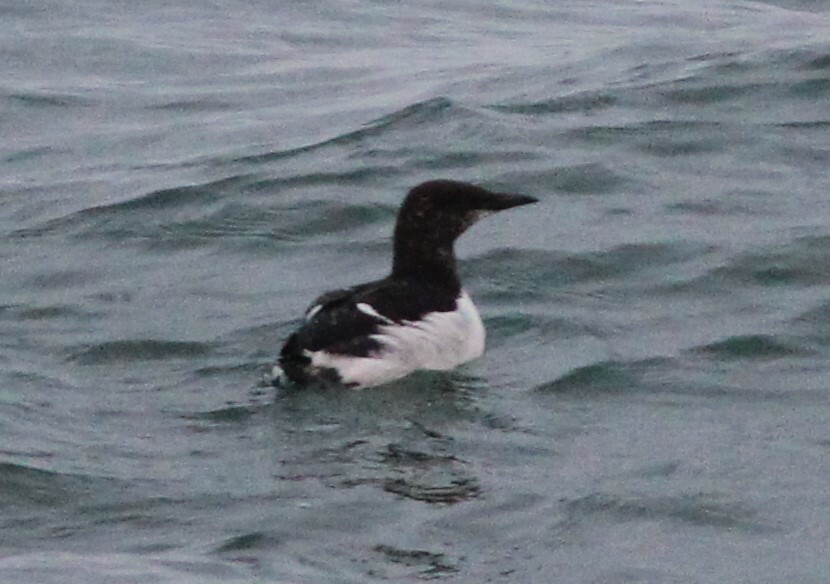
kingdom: Animalia
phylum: Chordata
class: Aves
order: Charadriiformes
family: Alcidae
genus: Uria
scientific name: Uria aalge
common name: Common murre
